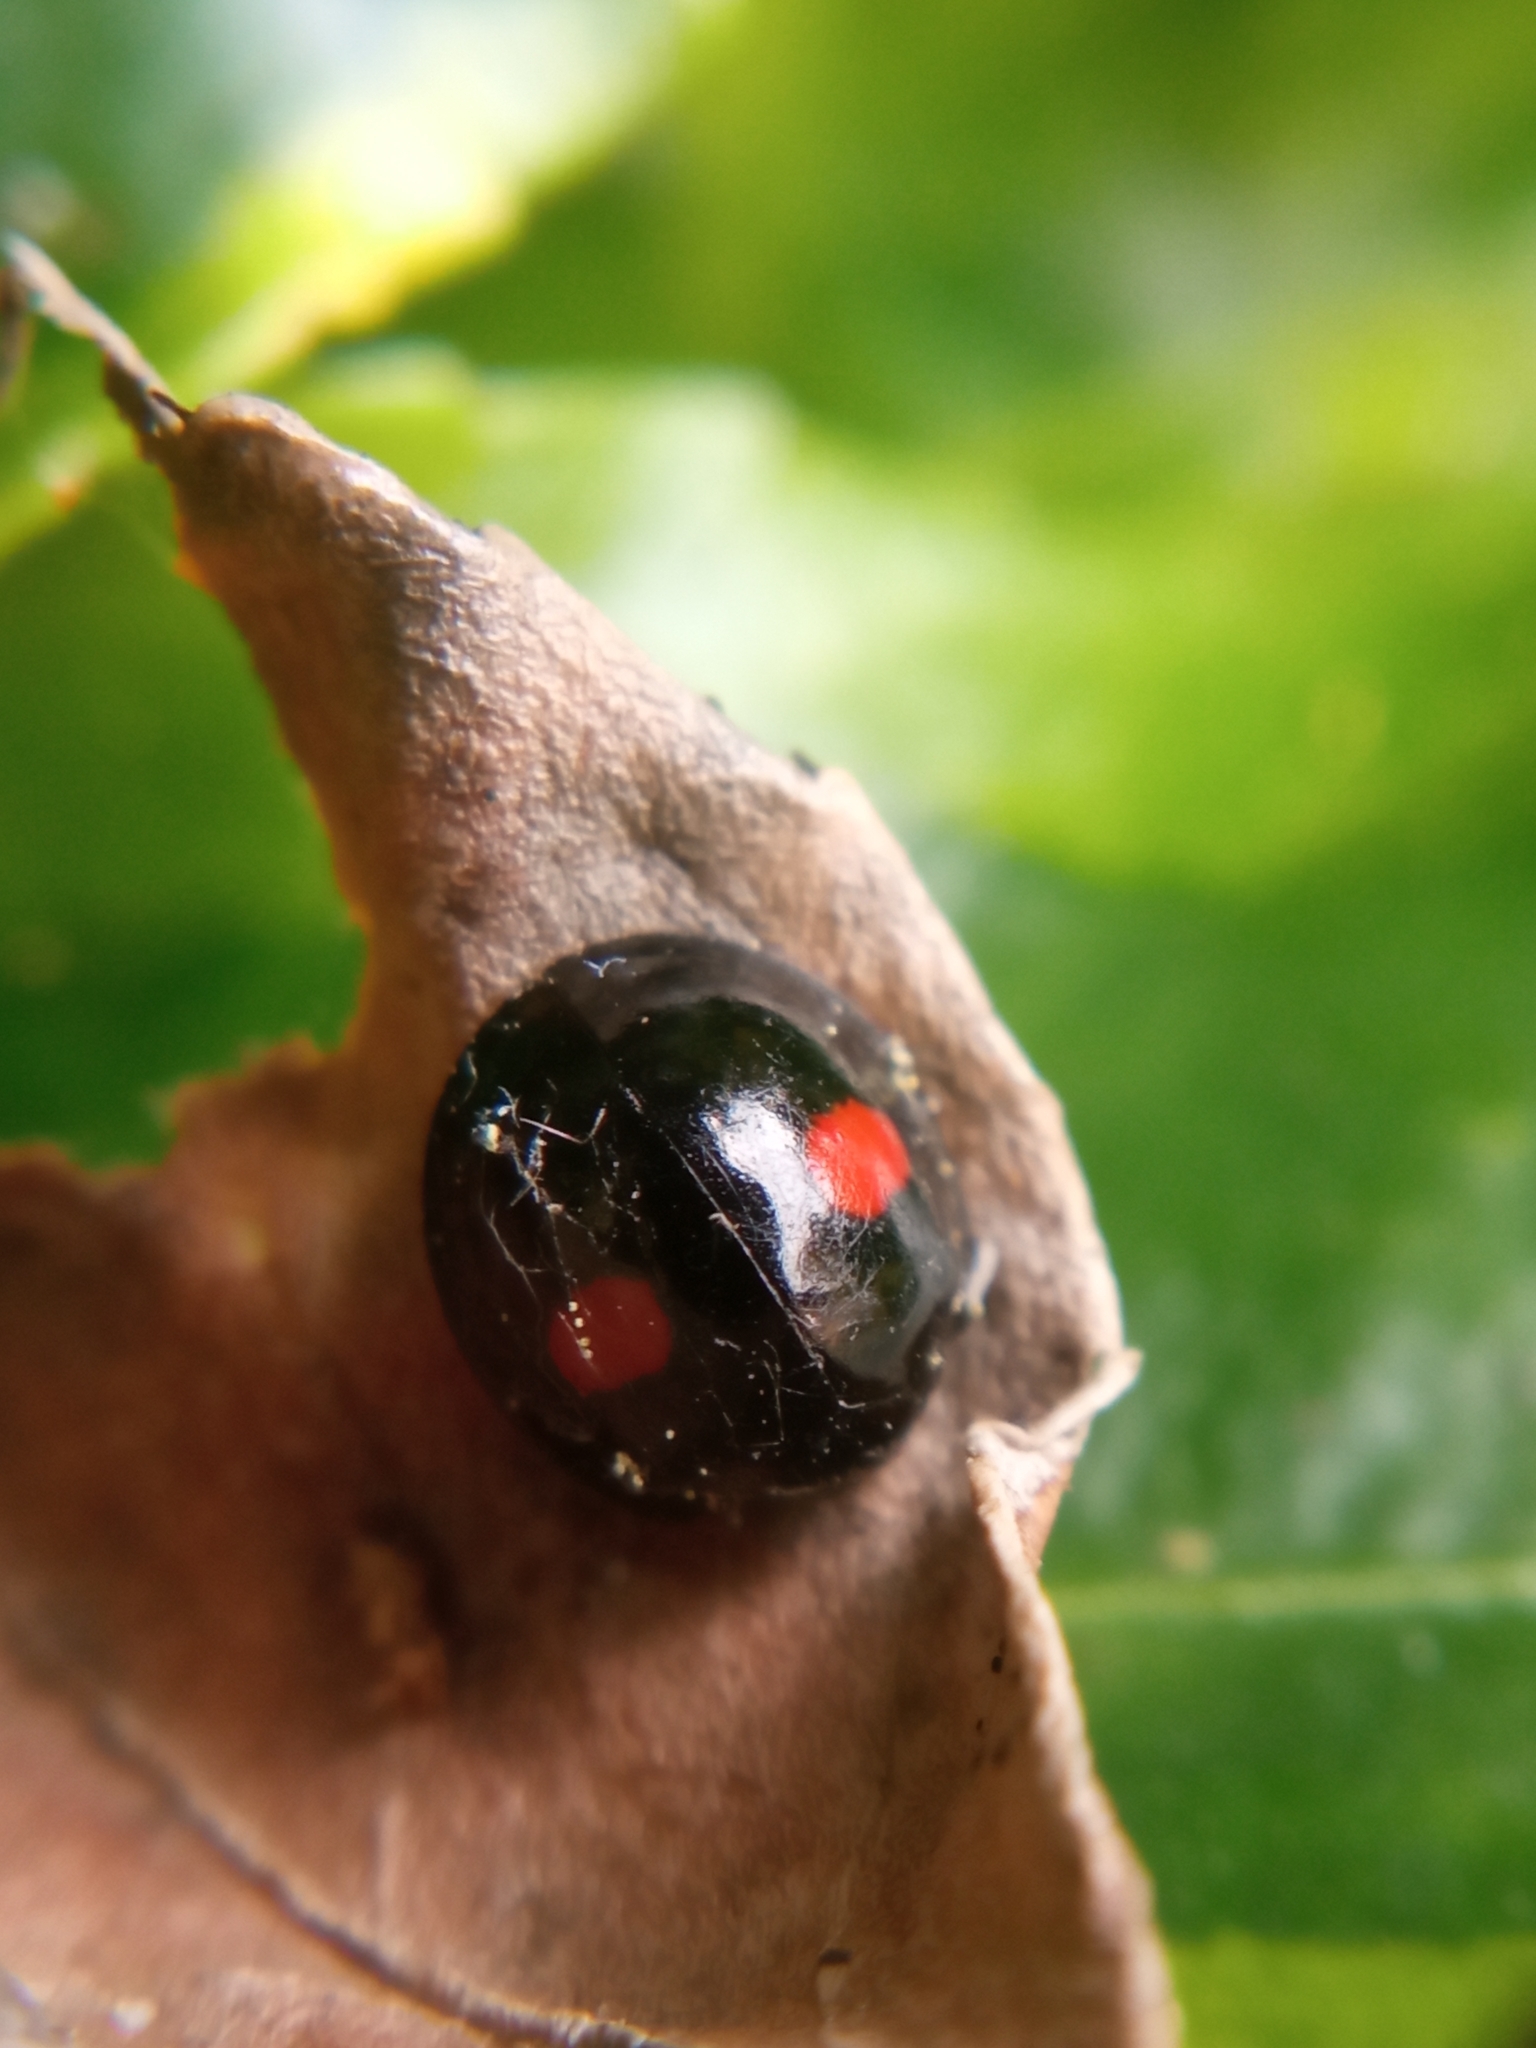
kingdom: Animalia
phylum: Arthropoda
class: Insecta
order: Coleoptera
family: Coccinellidae
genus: Chilocorus
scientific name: Chilocorus renipustulatus
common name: Kidney-spot ladybird
